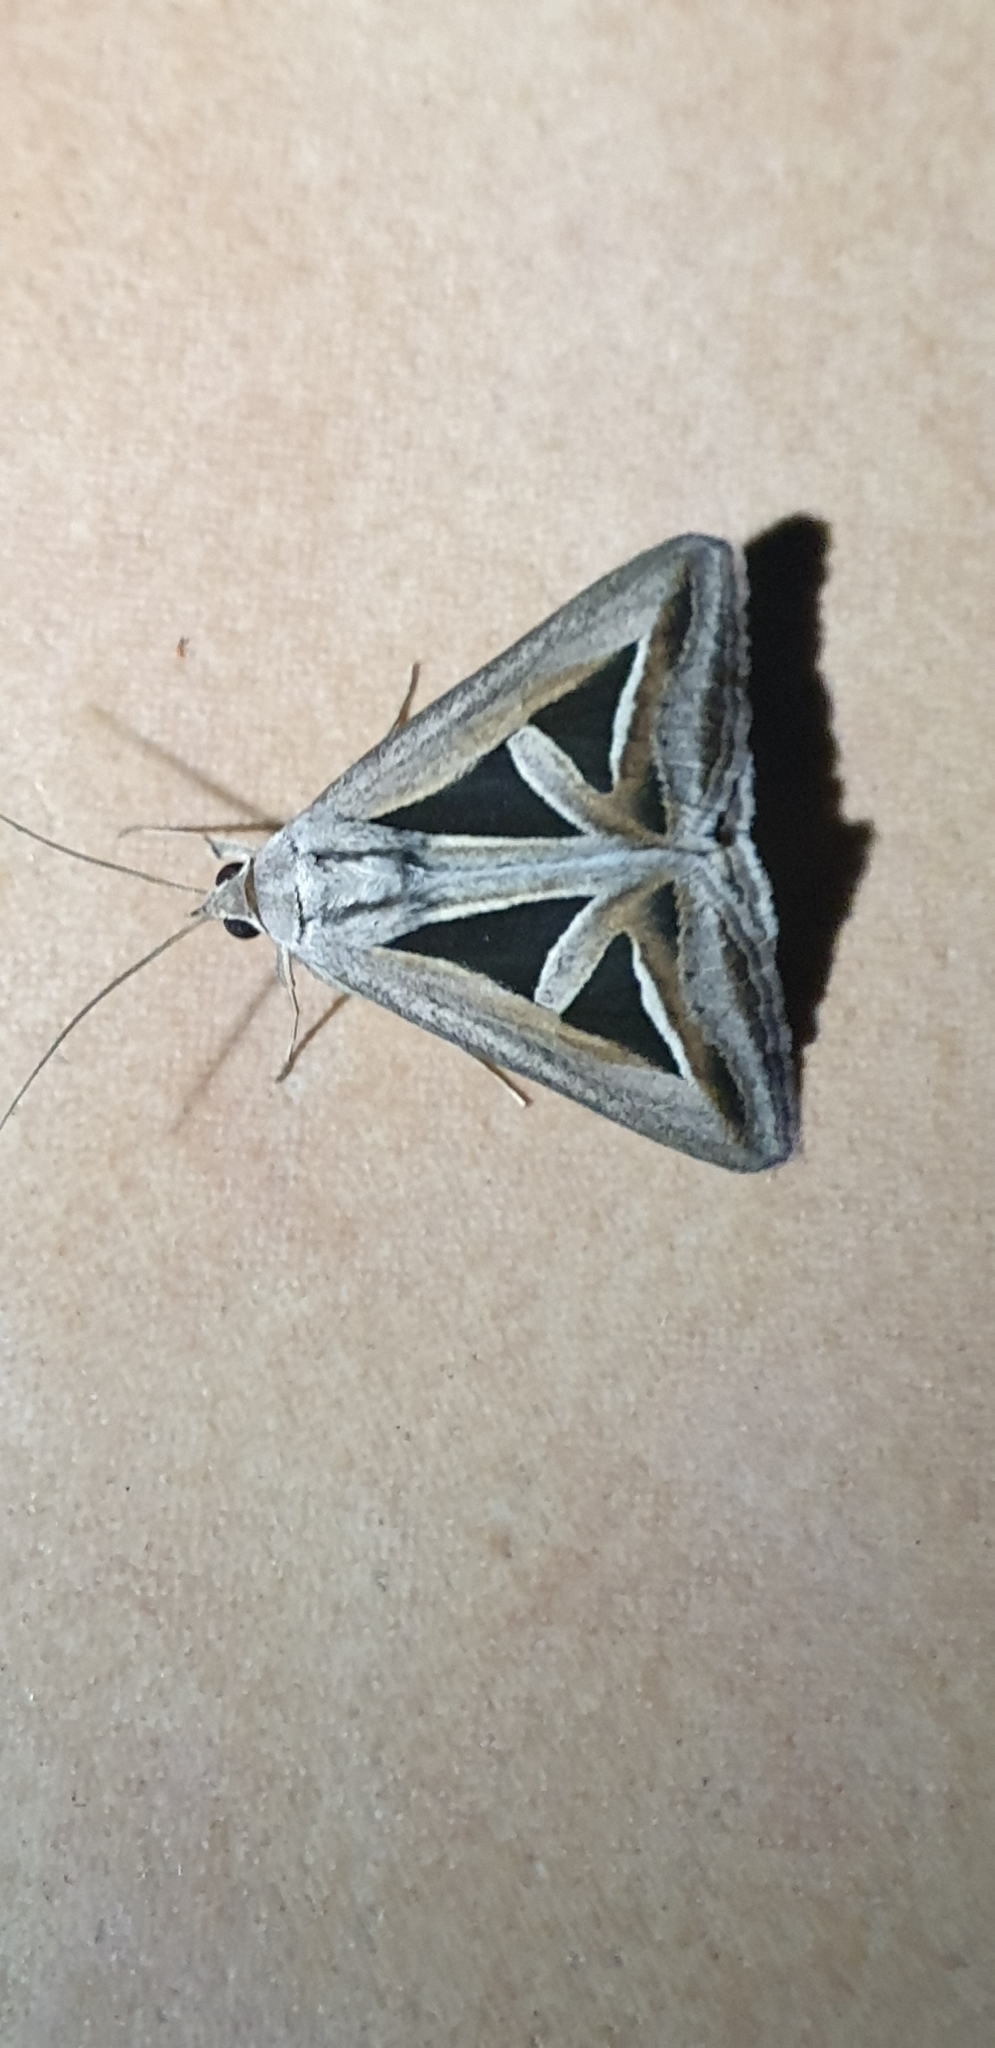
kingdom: Animalia
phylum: Arthropoda
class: Insecta
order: Lepidoptera
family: Erebidae
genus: Trigonodes
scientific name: Trigonodes hyppasia
